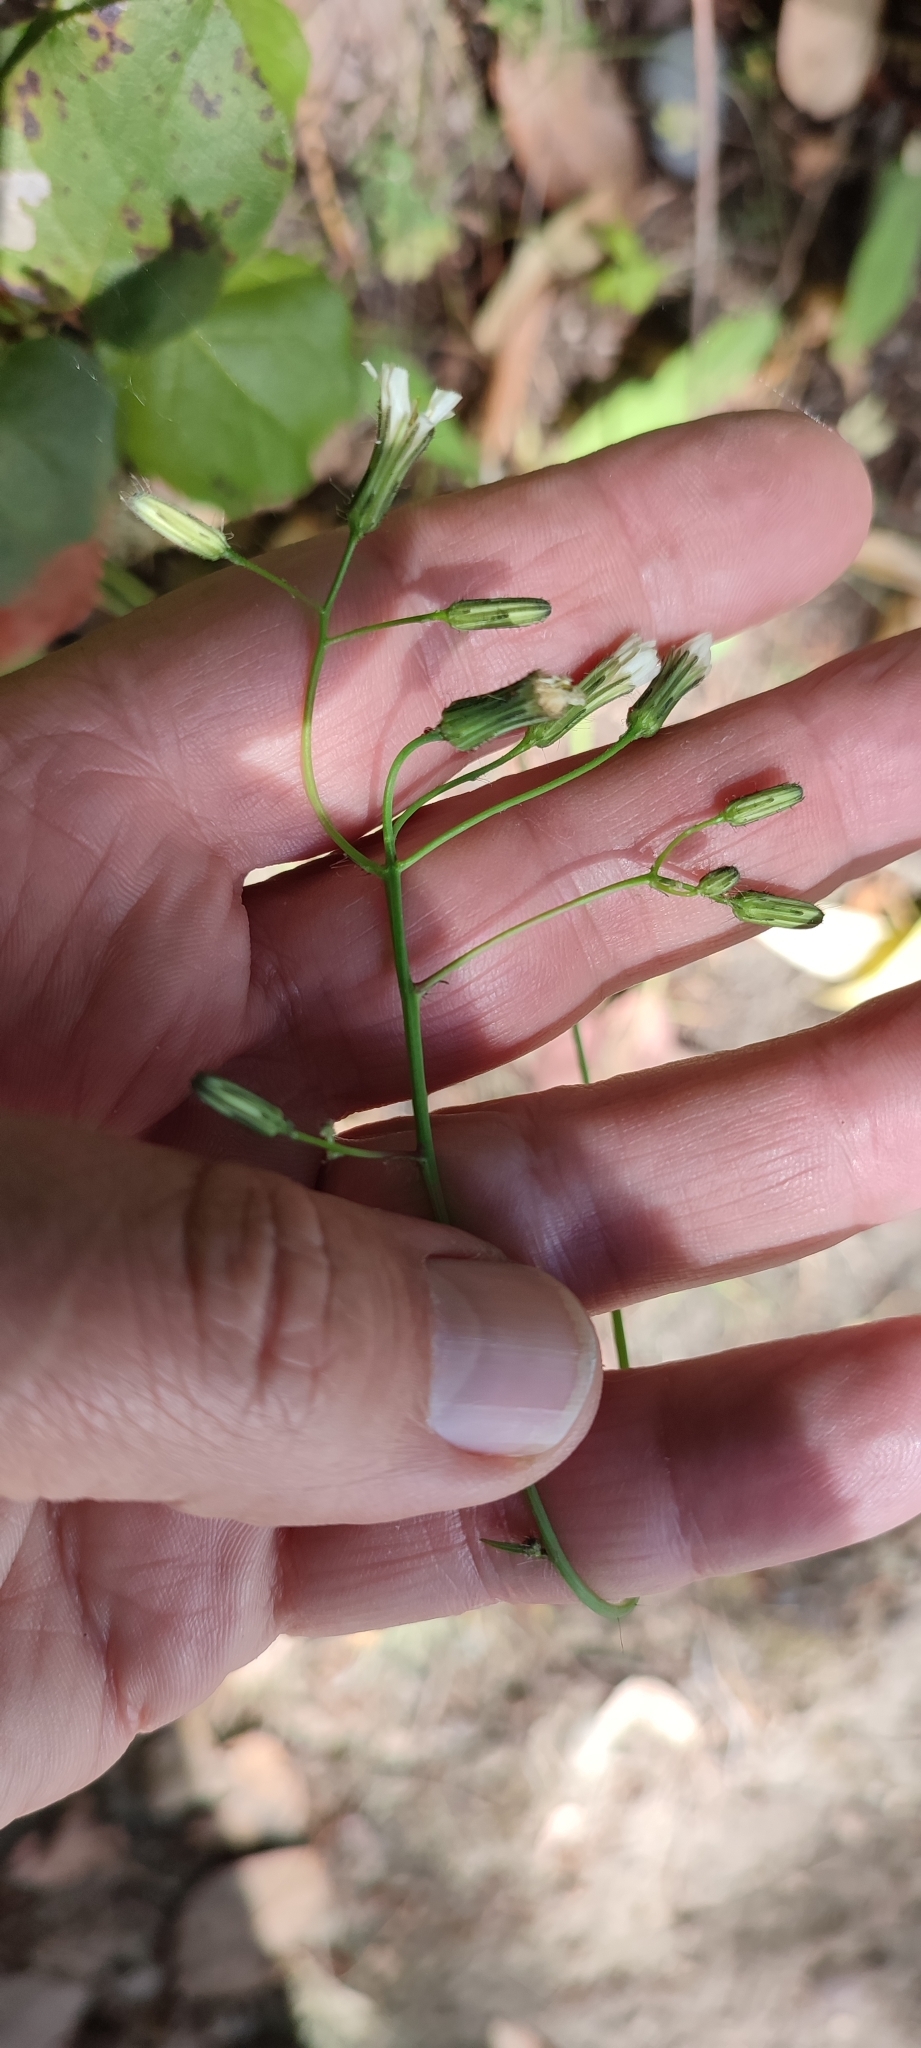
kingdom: Plantae
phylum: Tracheophyta
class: Magnoliopsida
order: Asterales
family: Asteraceae
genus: Hieracium
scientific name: Hieracium albiflorum
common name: White hawkweed
